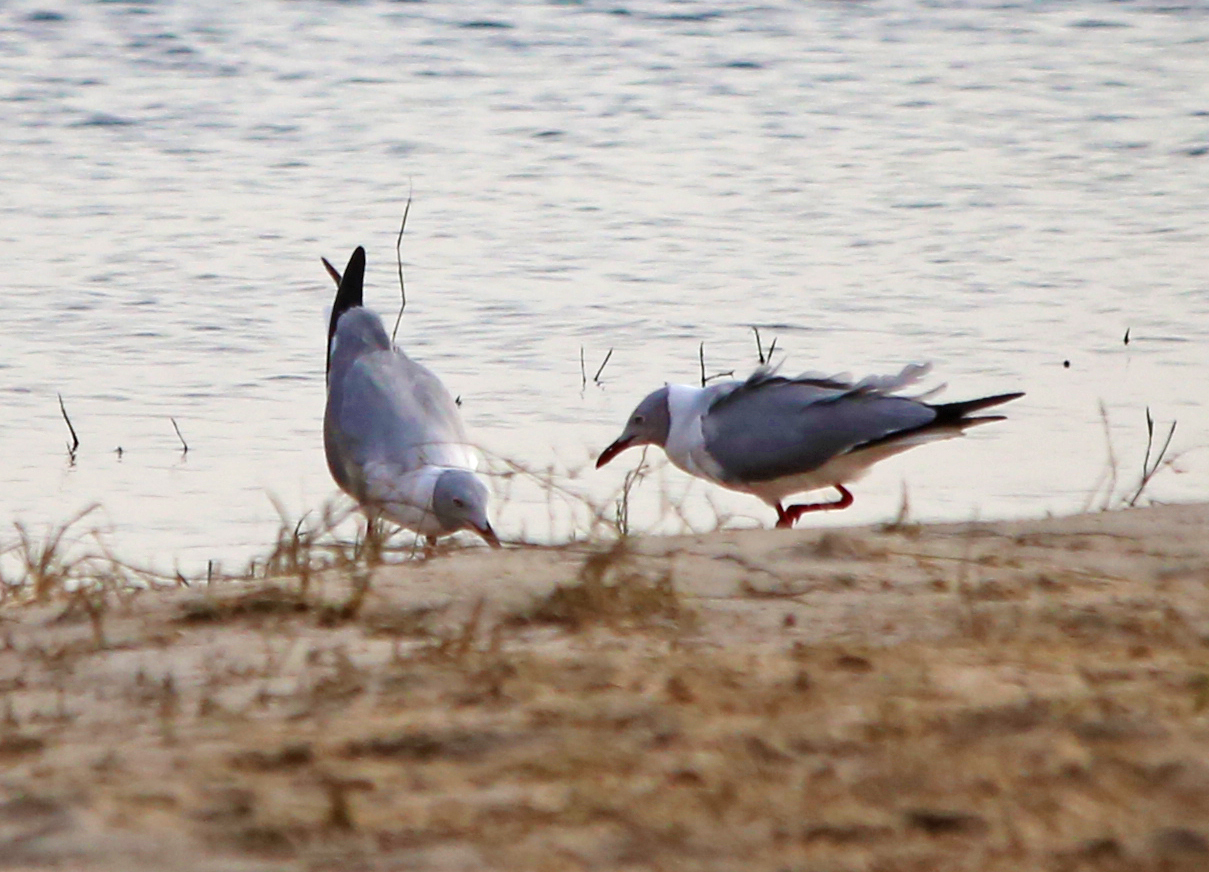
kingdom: Animalia
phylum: Chordata
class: Aves
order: Charadriiformes
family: Laridae
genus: Chroicocephalus
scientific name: Chroicocephalus cirrocephalus
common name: Grey-headed gull
